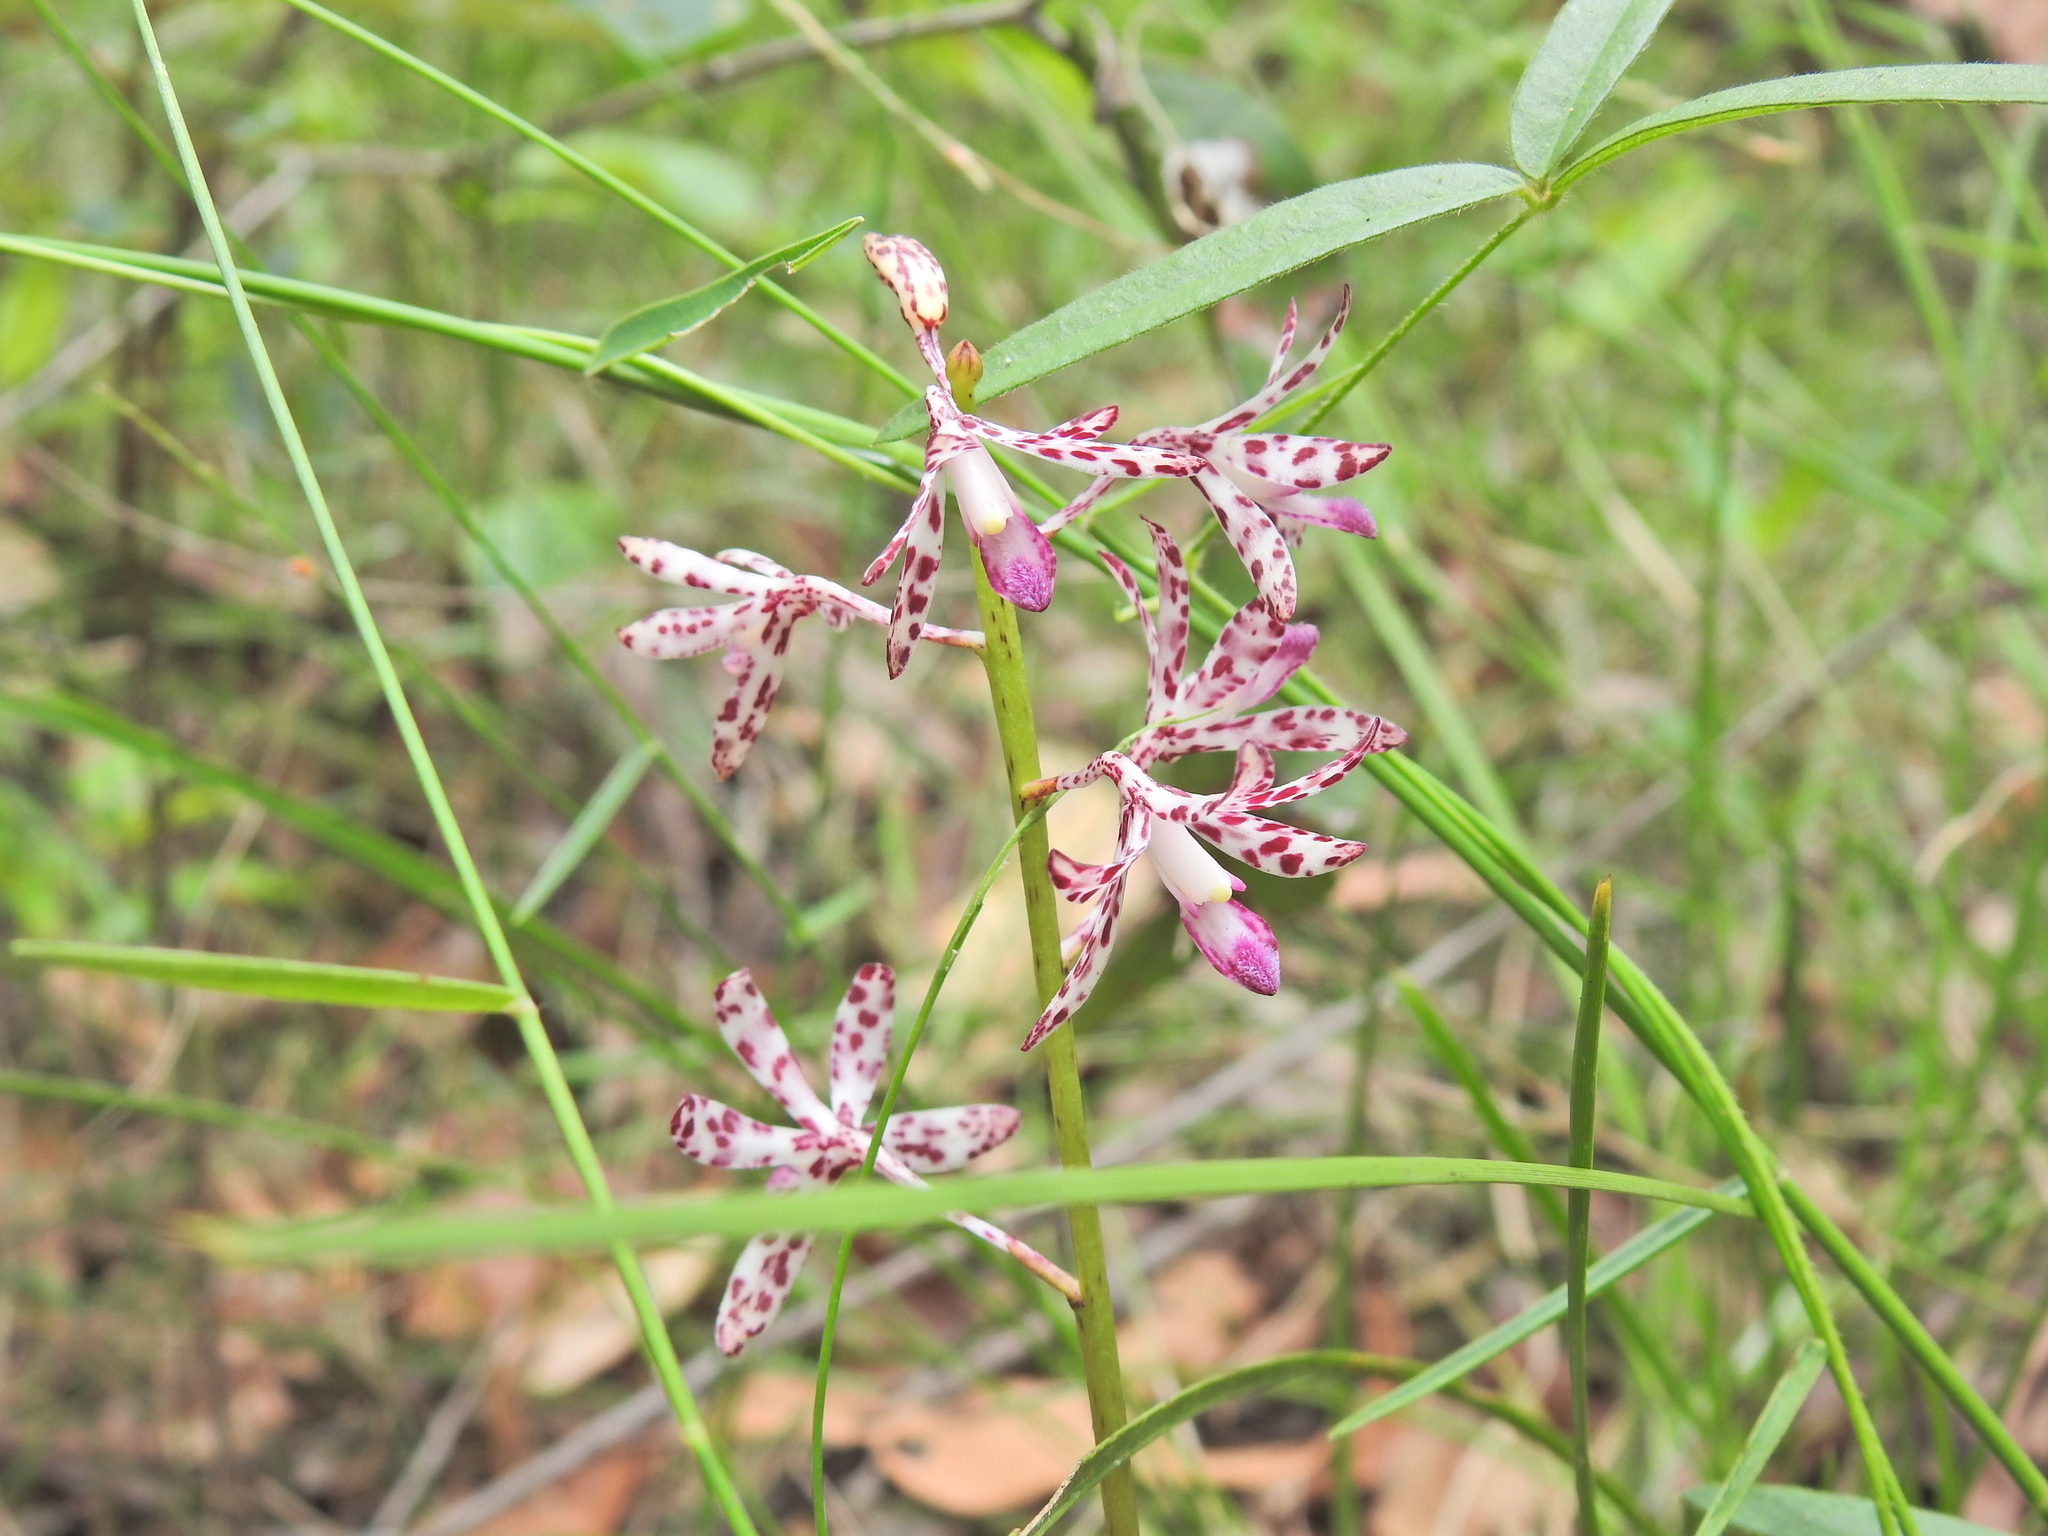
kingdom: Plantae
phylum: Tracheophyta
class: Liliopsida
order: Asparagales
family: Orchidaceae
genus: Dipodium
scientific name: Dipodium variegatum
